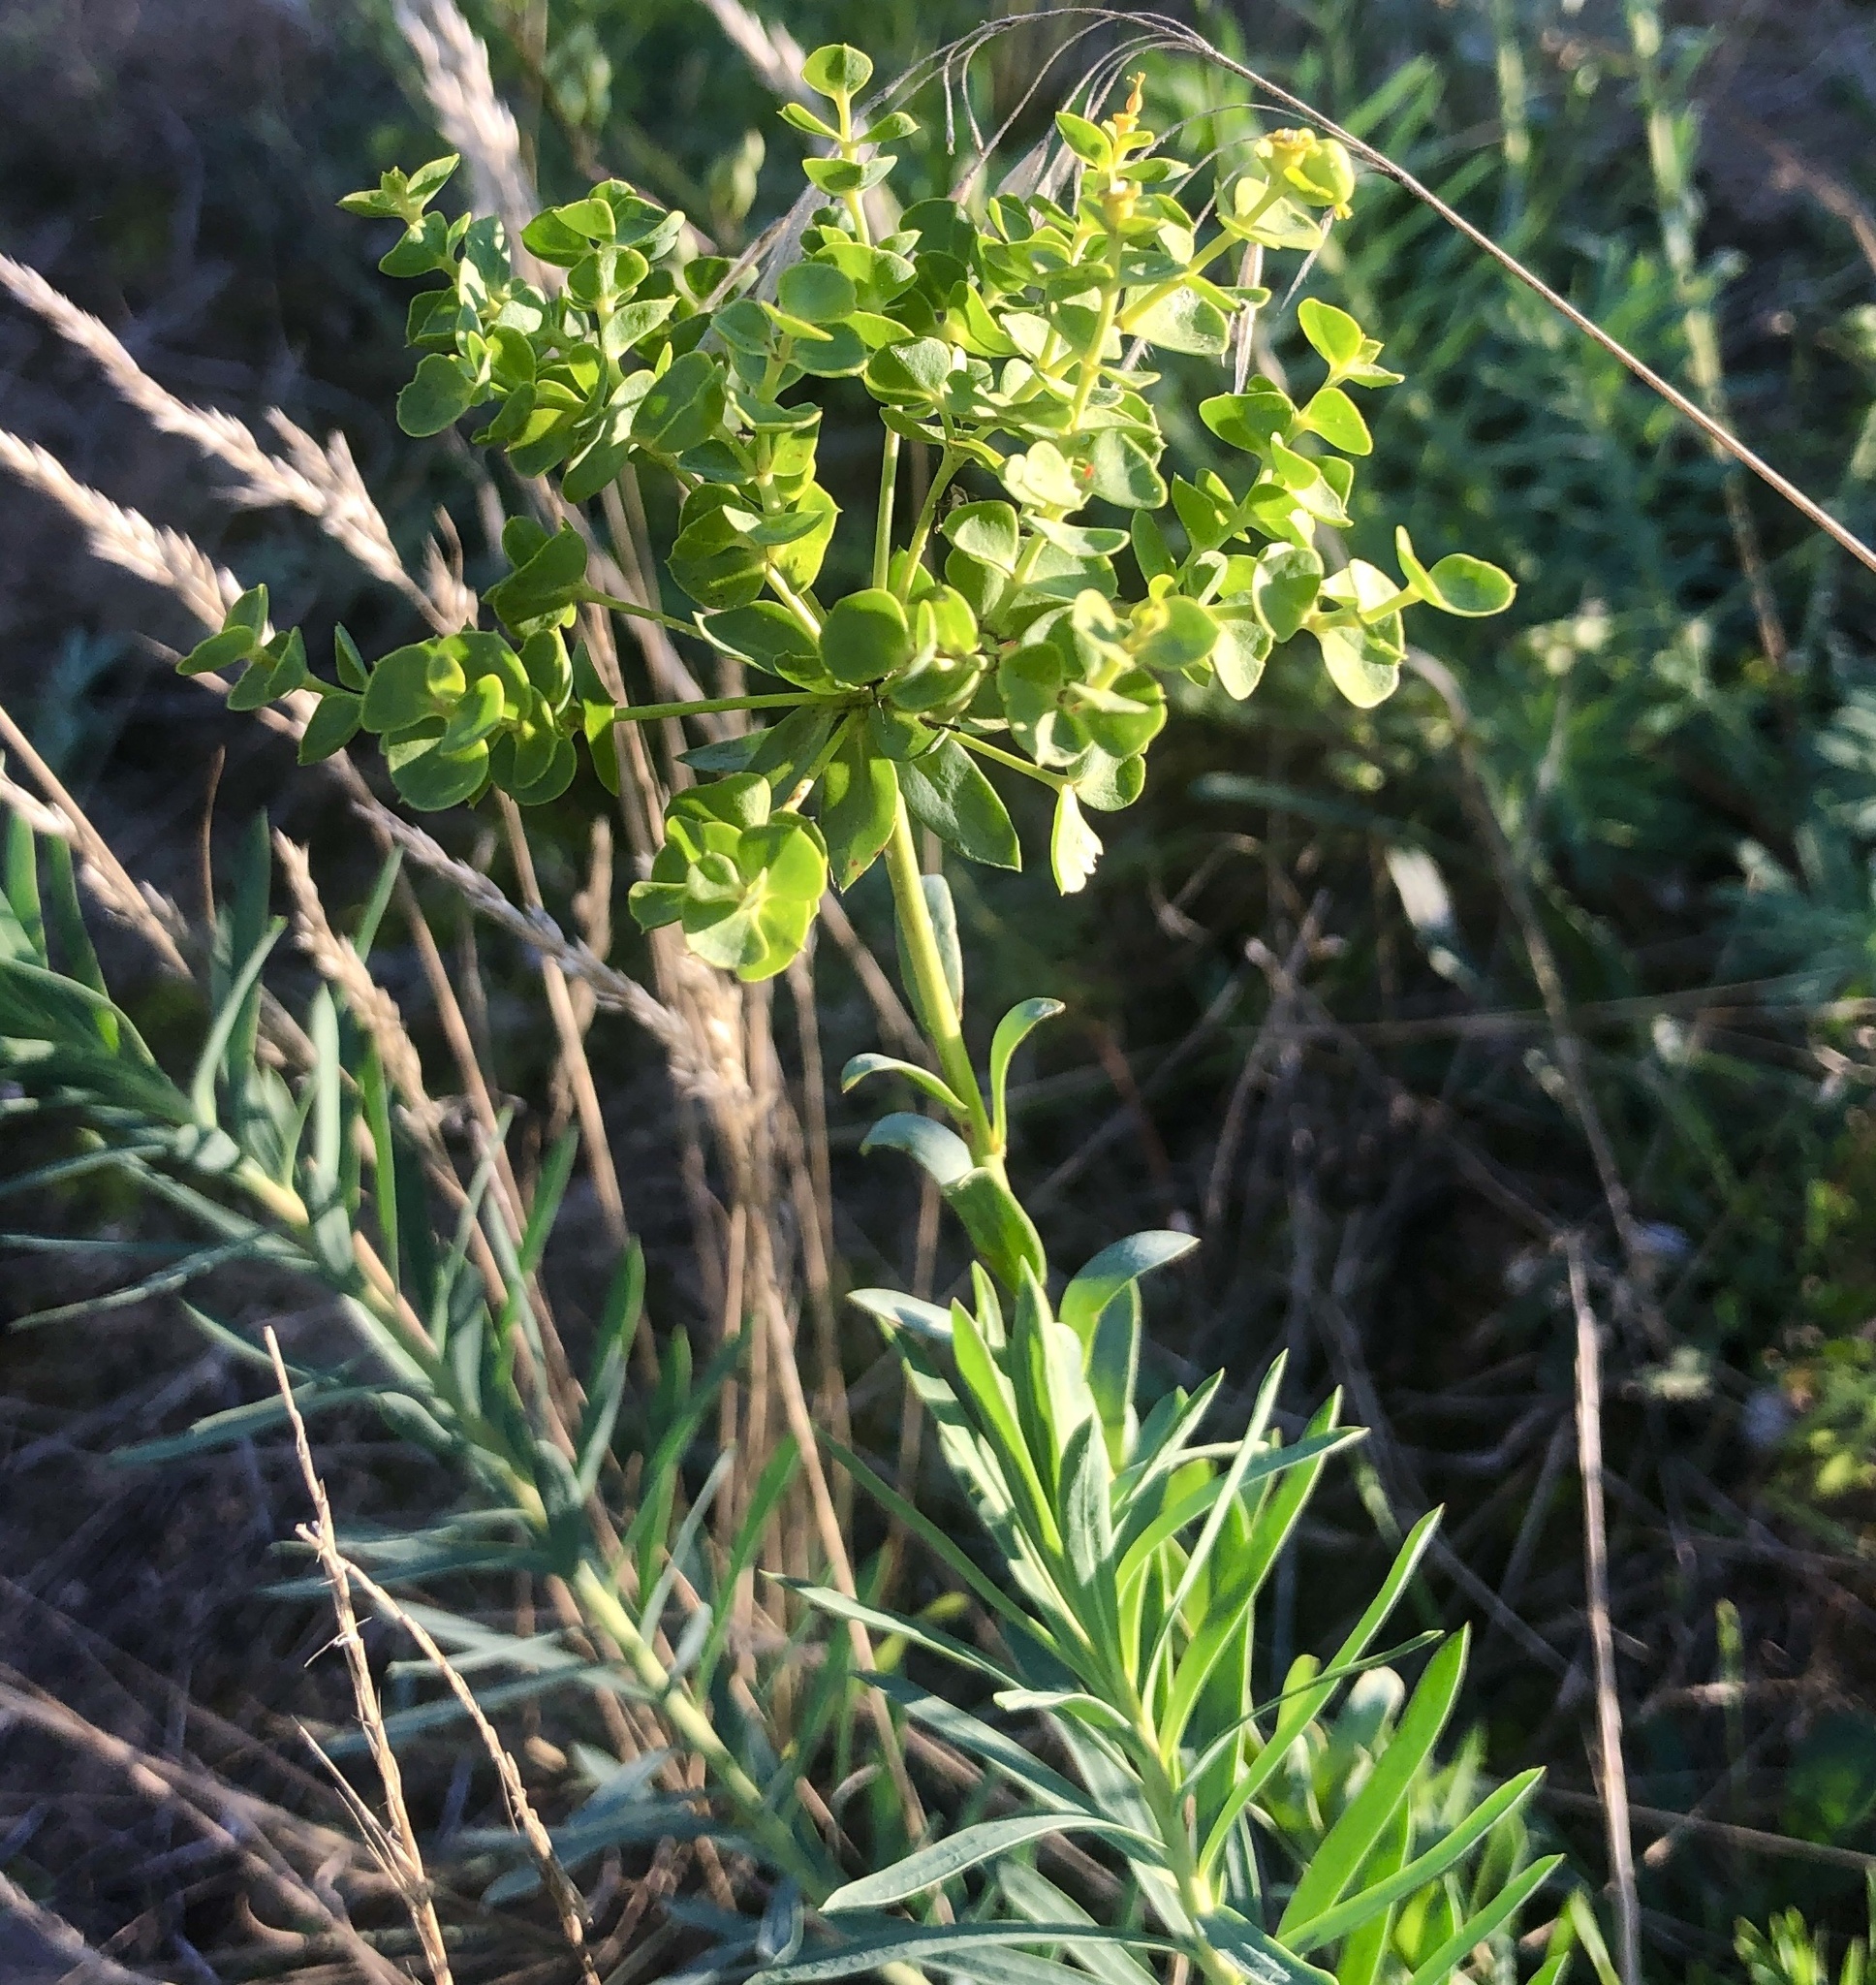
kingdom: Plantae
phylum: Tracheophyta
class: Magnoliopsida
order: Malpighiales
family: Euphorbiaceae
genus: Euphorbia
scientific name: Euphorbia seguieriana
